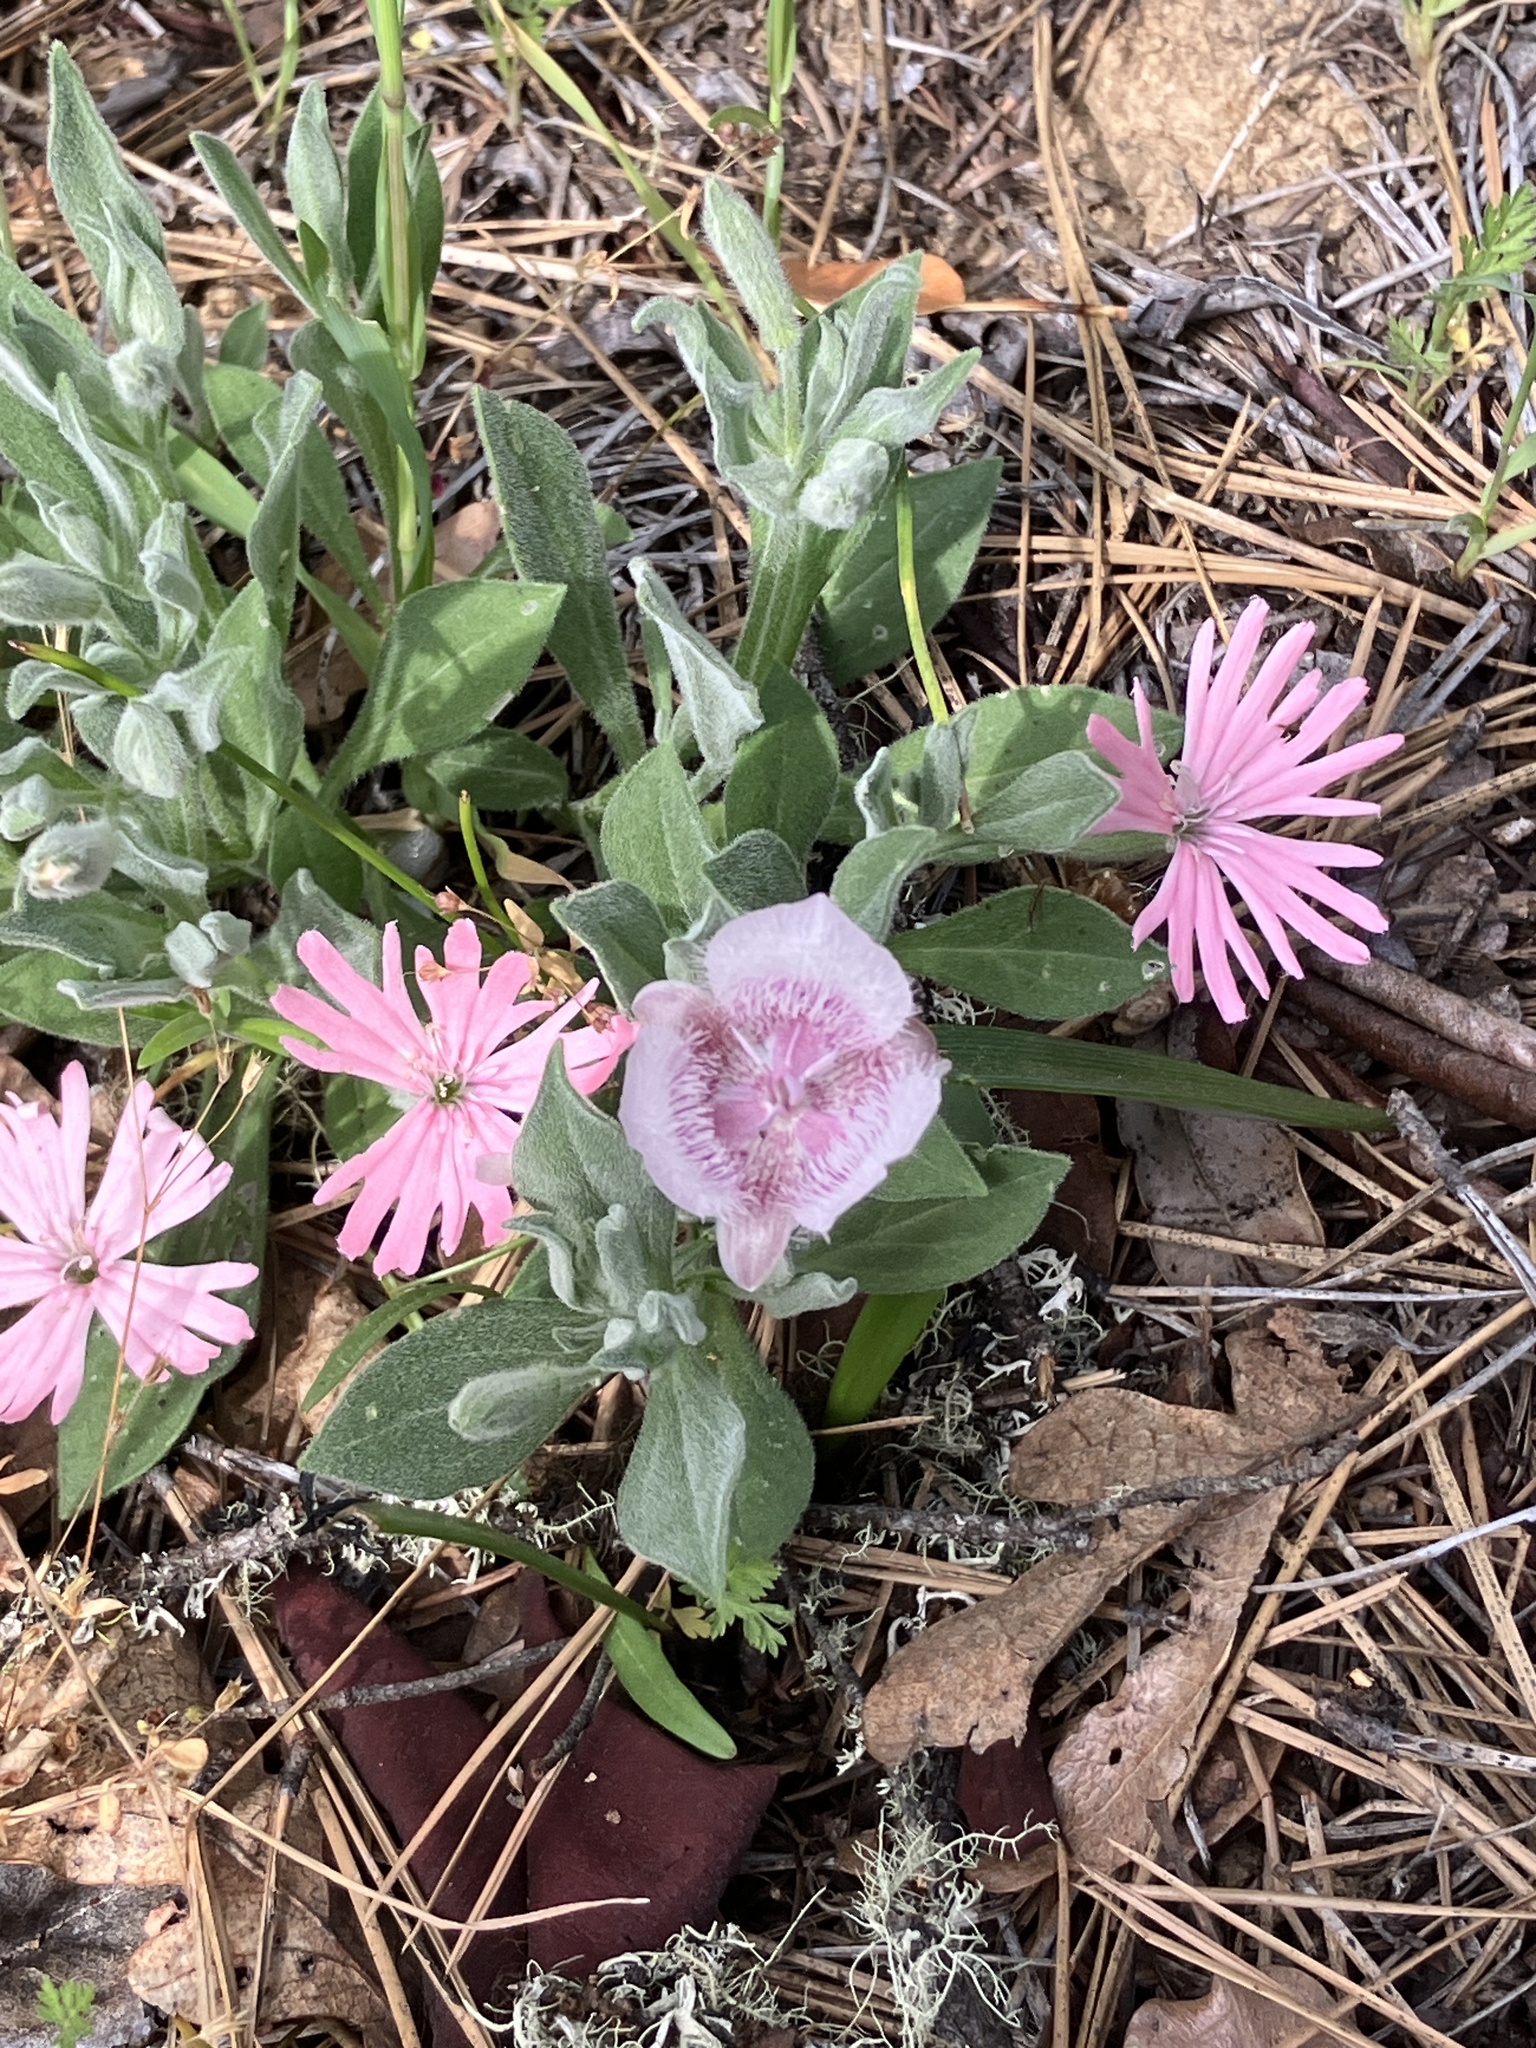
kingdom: Plantae
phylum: Tracheophyta
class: Liliopsida
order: Liliales
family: Liliaceae
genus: Calochortus
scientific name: Calochortus tolmiei
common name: Pussy-ears
